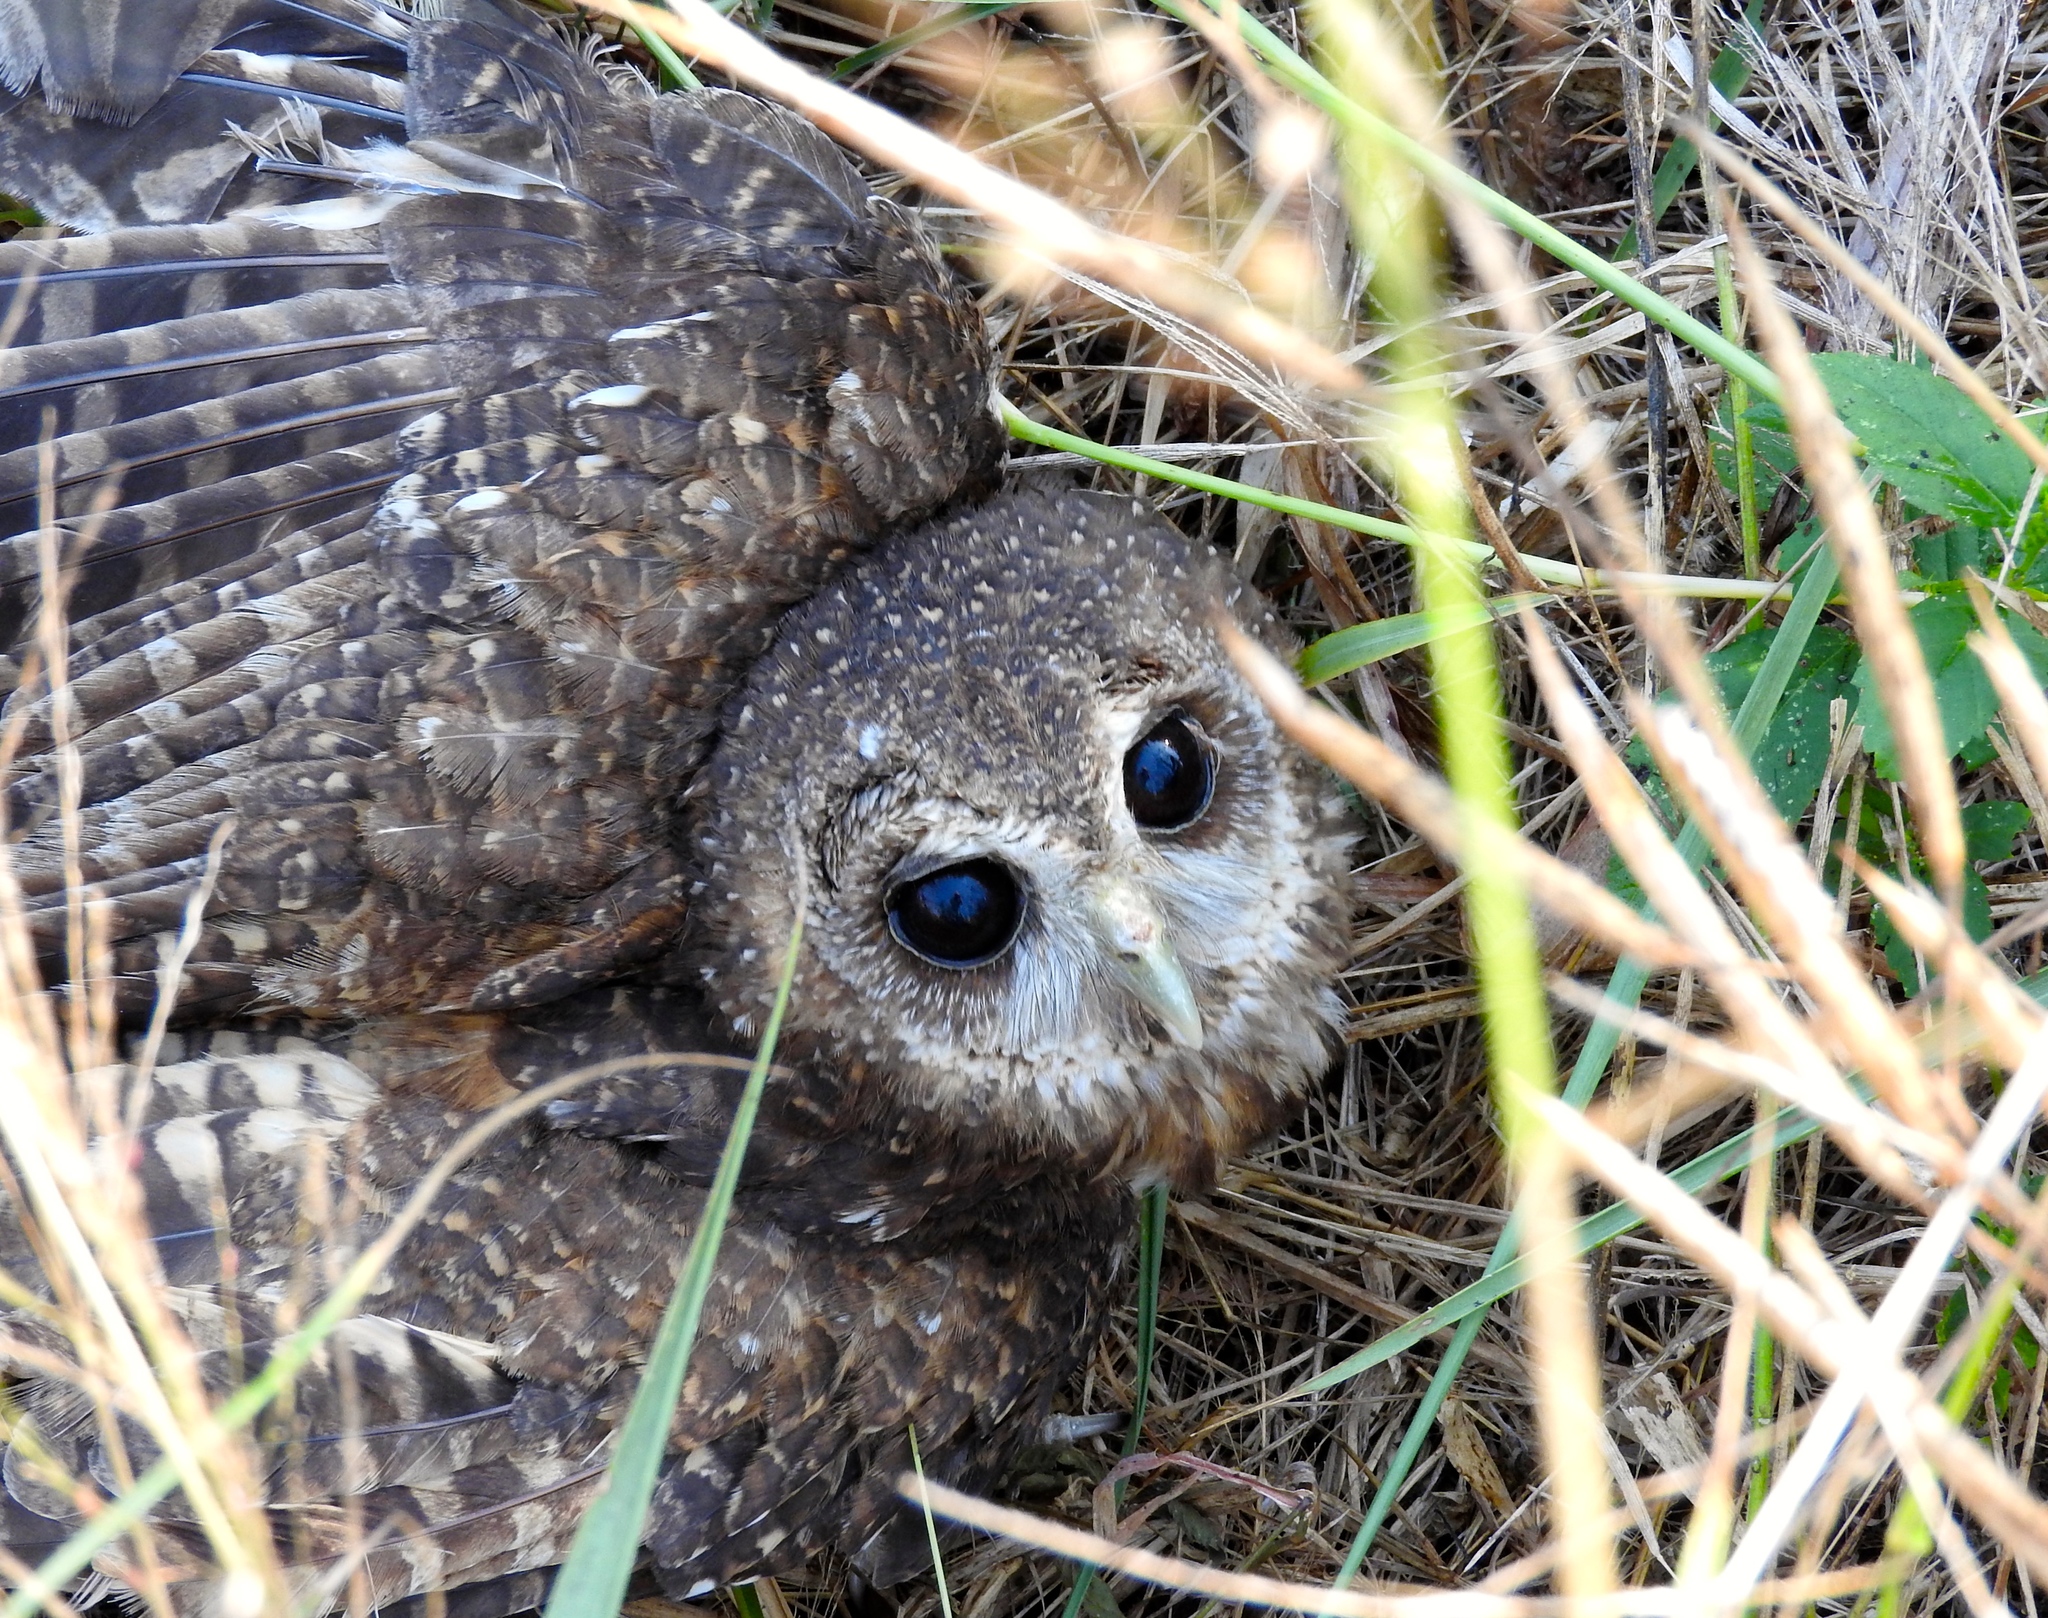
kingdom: Animalia
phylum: Chordata
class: Aves
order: Strigiformes
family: Strigidae
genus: Strix
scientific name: Strix virgata
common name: Mottled owl
